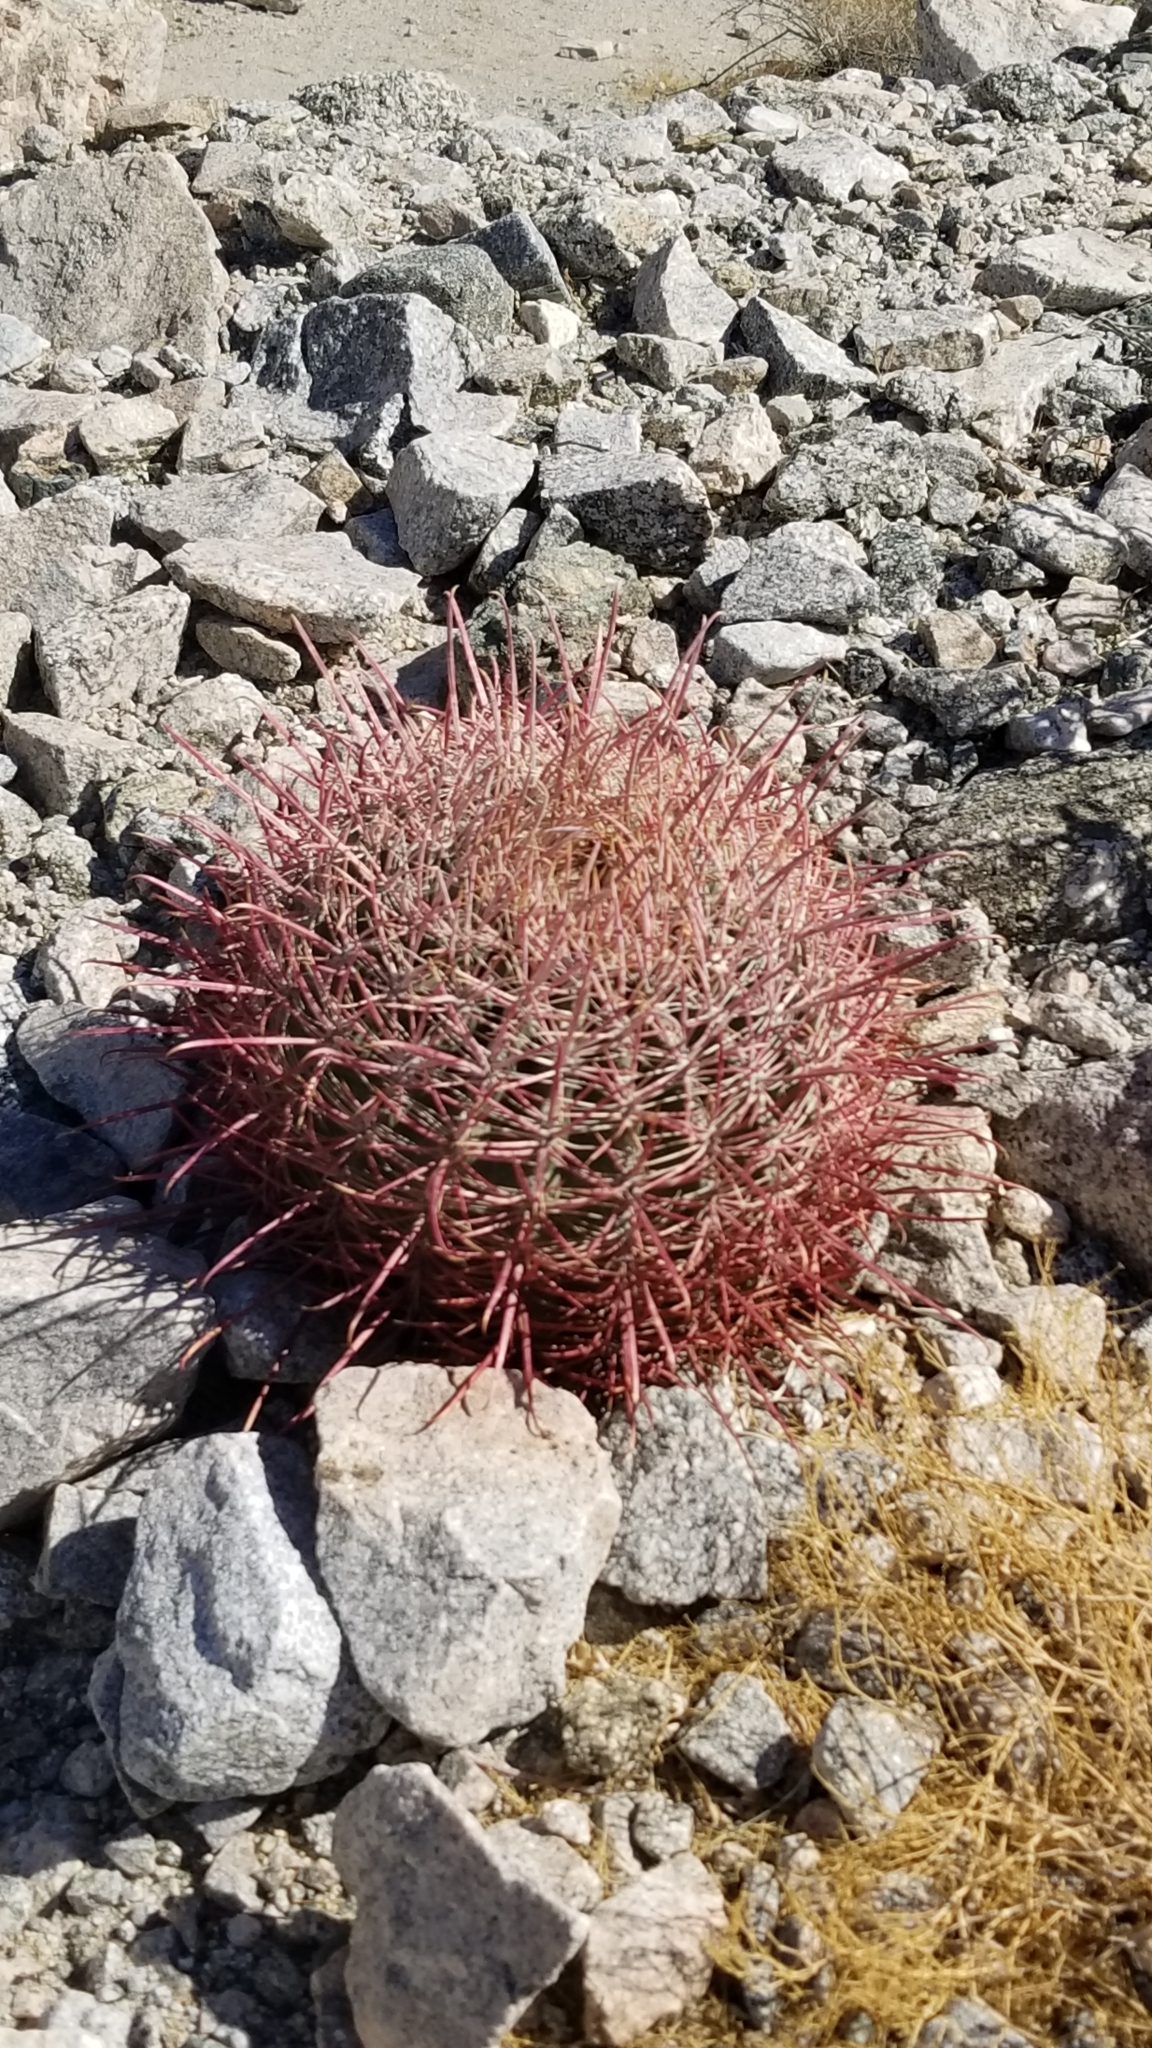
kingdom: Plantae
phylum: Tracheophyta
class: Magnoliopsida
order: Caryophyllales
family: Cactaceae
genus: Ferocactus
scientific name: Ferocactus cylindraceus
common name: California barrel cactus
